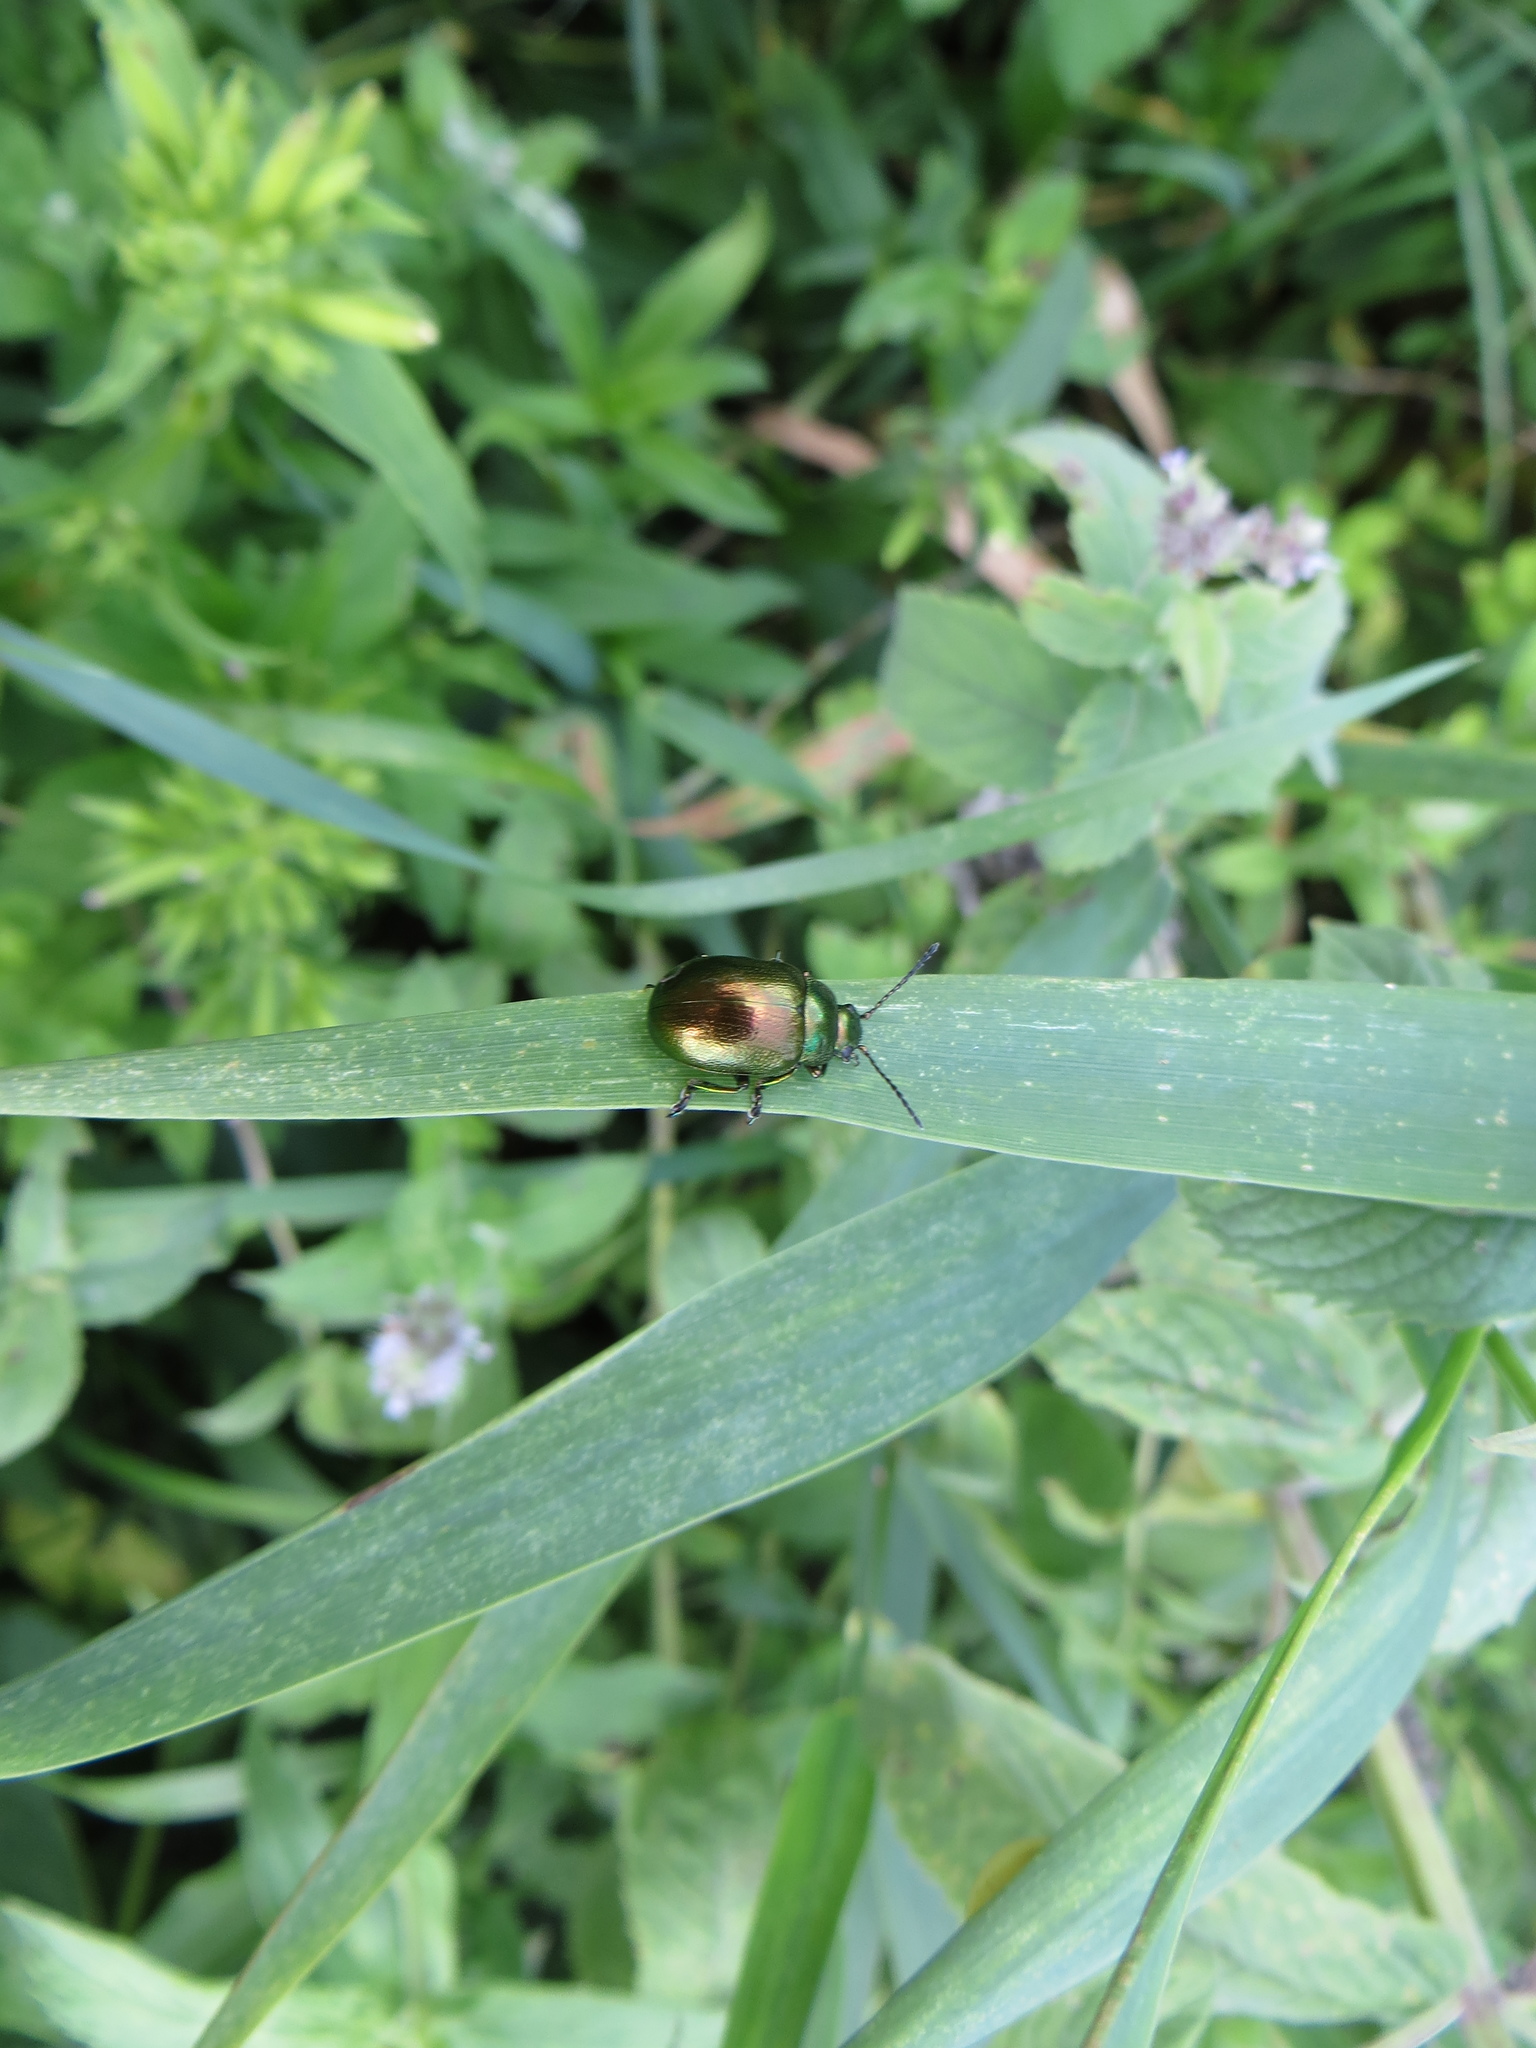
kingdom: Animalia
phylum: Arthropoda
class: Insecta
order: Coleoptera
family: Chrysomelidae
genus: Chrysolina
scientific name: Chrysolina herbacea
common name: Mint leaf beatle
